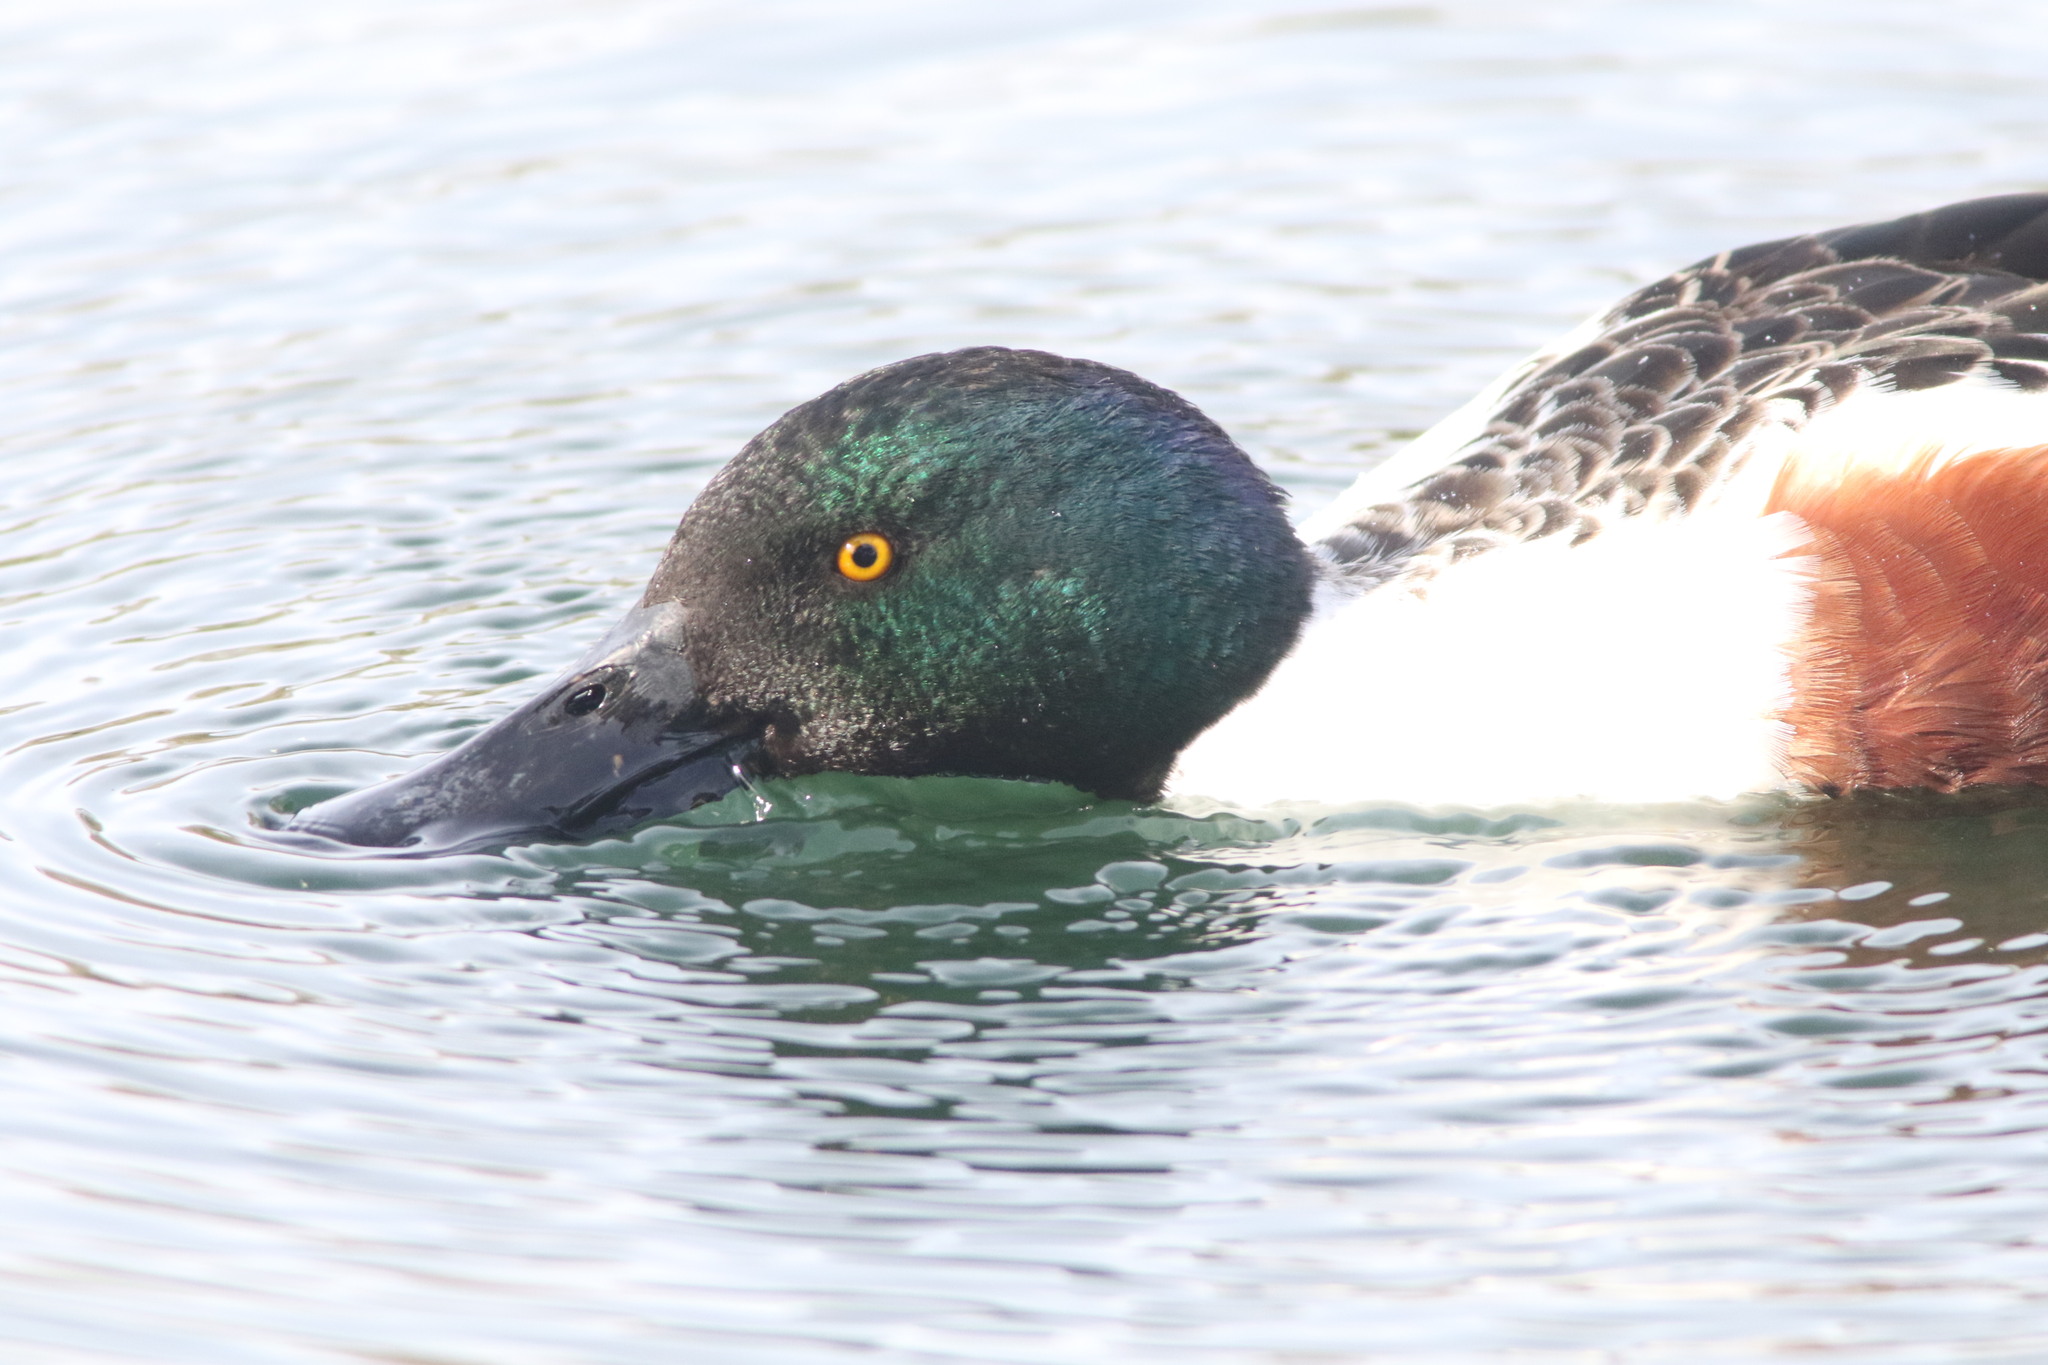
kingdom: Animalia
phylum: Chordata
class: Aves
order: Anseriformes
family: Anatidae
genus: Spatula
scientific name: Spatula clypeata
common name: Northern shoveler
